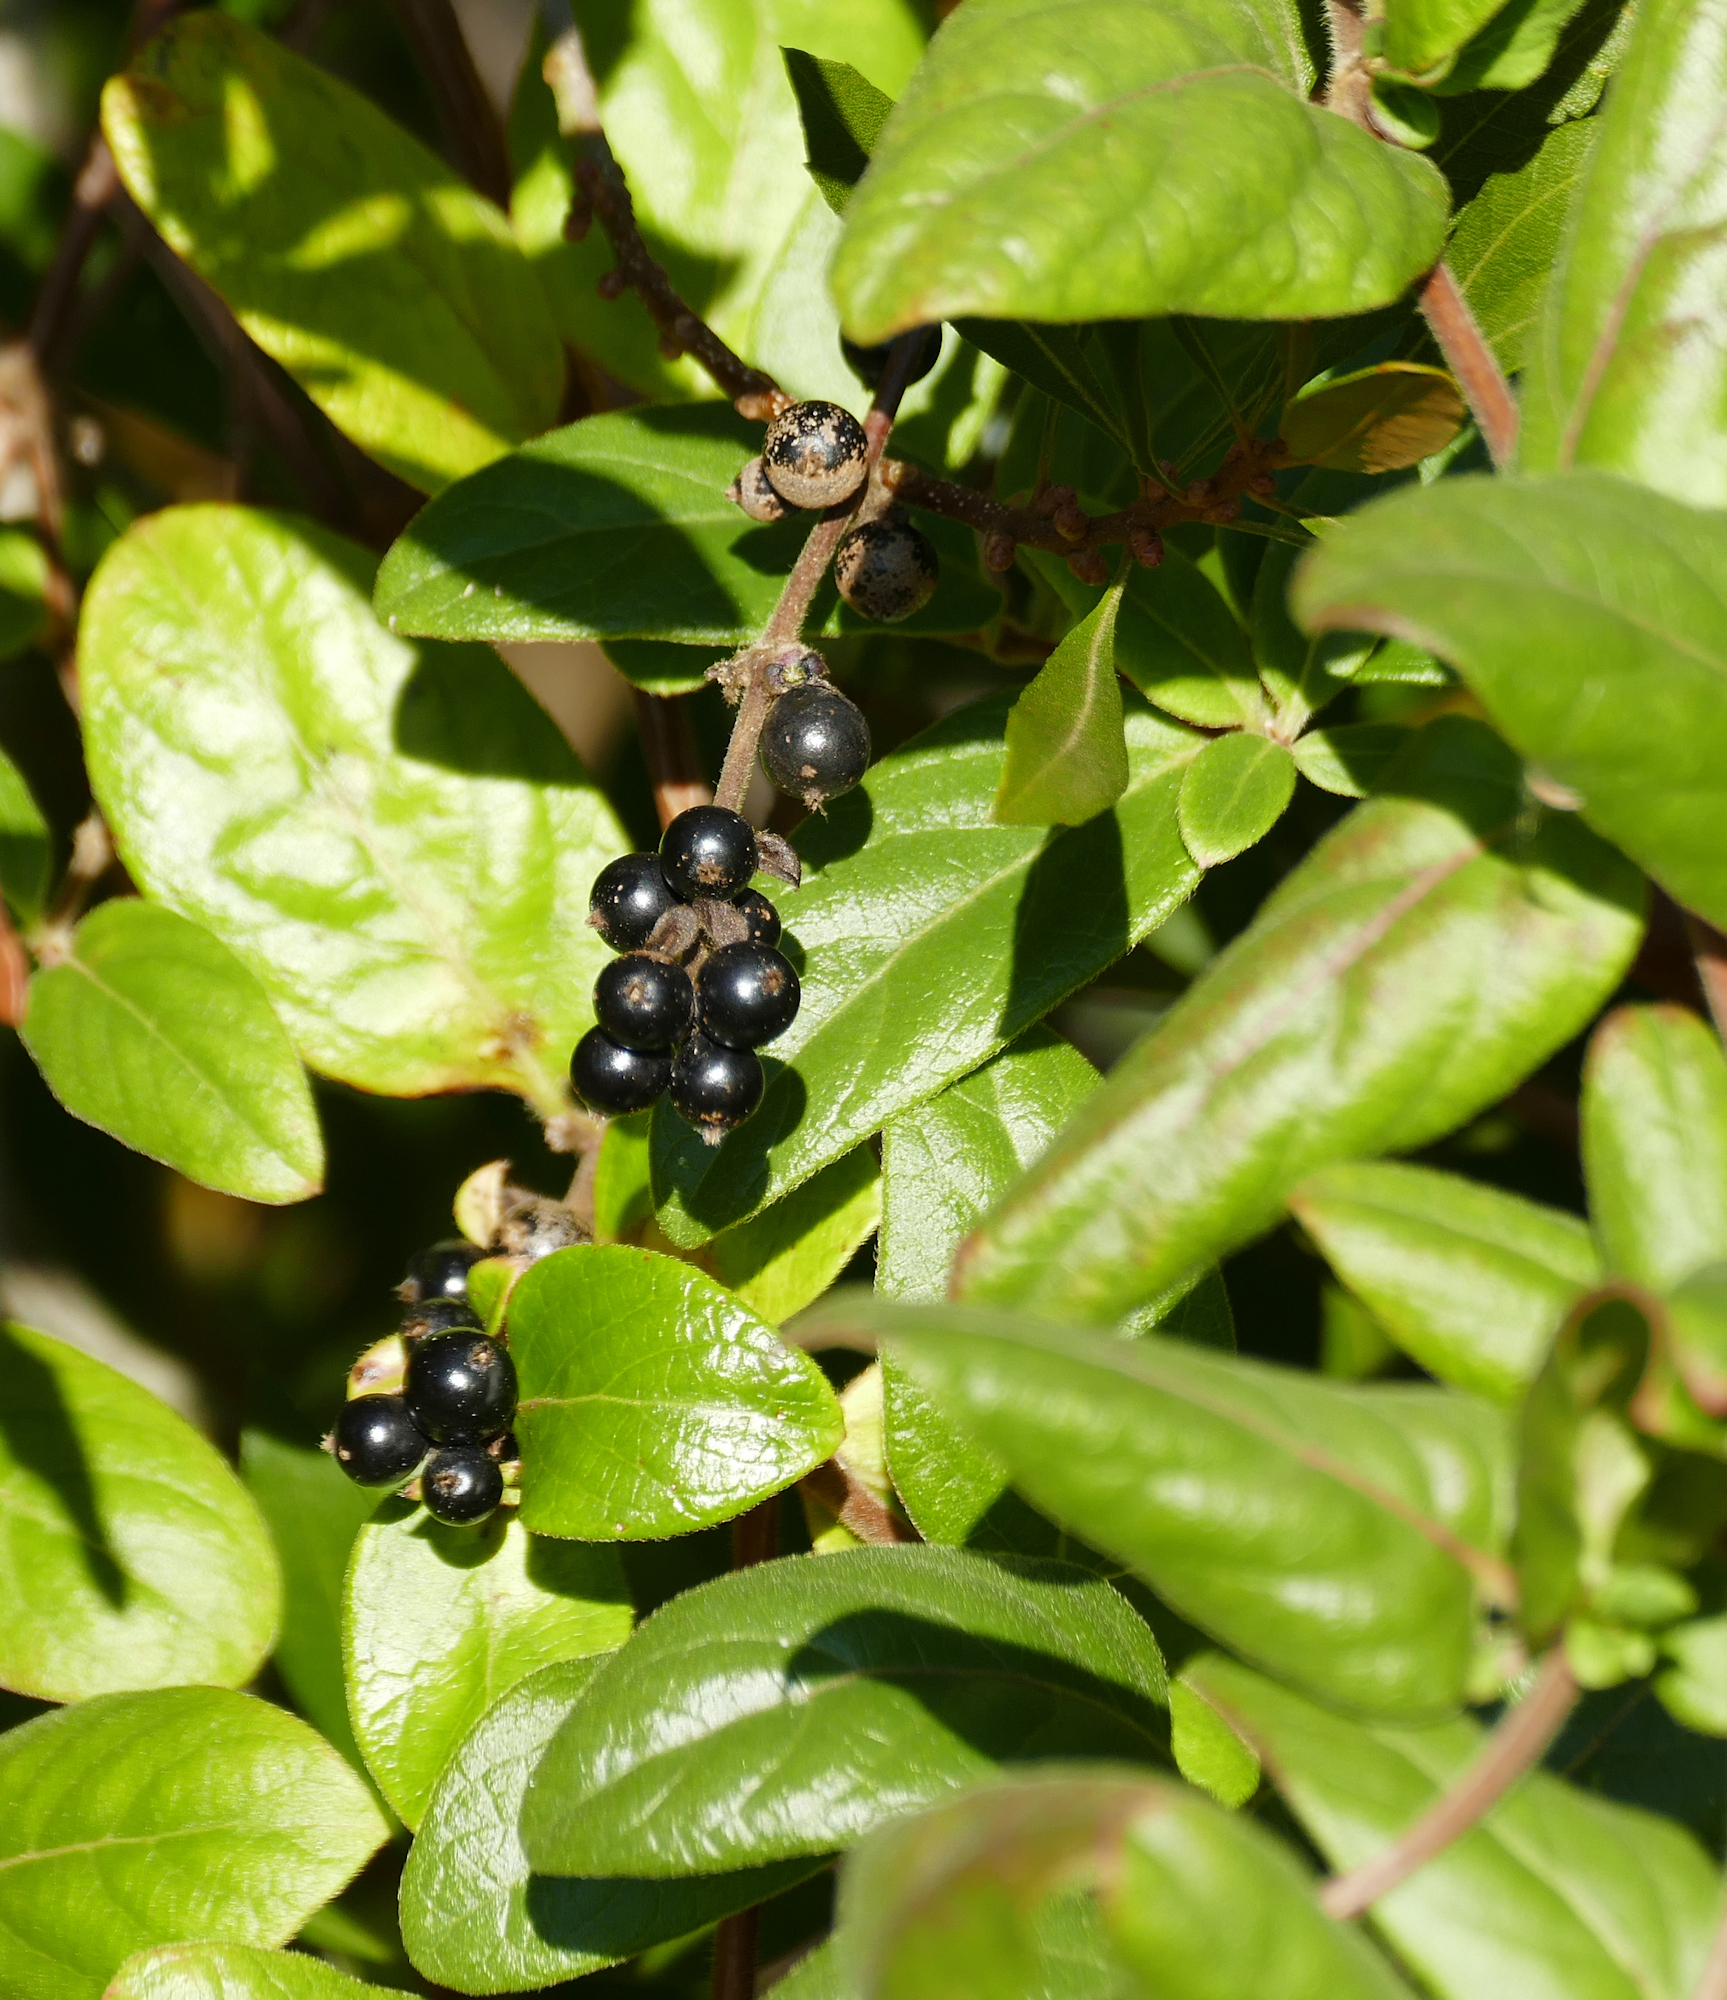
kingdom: Plantae
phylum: Tracheophyta
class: Magnoliopsida
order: Dipsacales
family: Caprifoliaceae
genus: Lonicera
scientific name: Lonicera japonica
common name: Japanese honeysuckle
